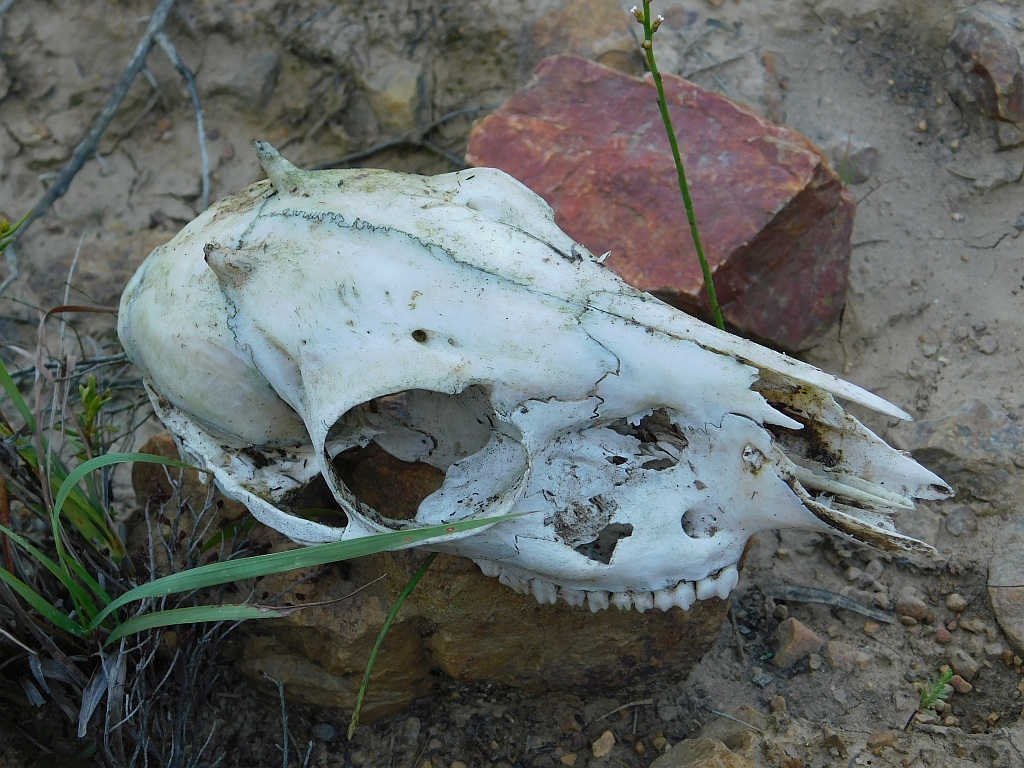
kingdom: Animalia
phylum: Chordata
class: Mammalia
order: Artiodactyla
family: Bovidae
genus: Sylvicapra
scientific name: Sylvicapra grimmia
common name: Bush duiker
